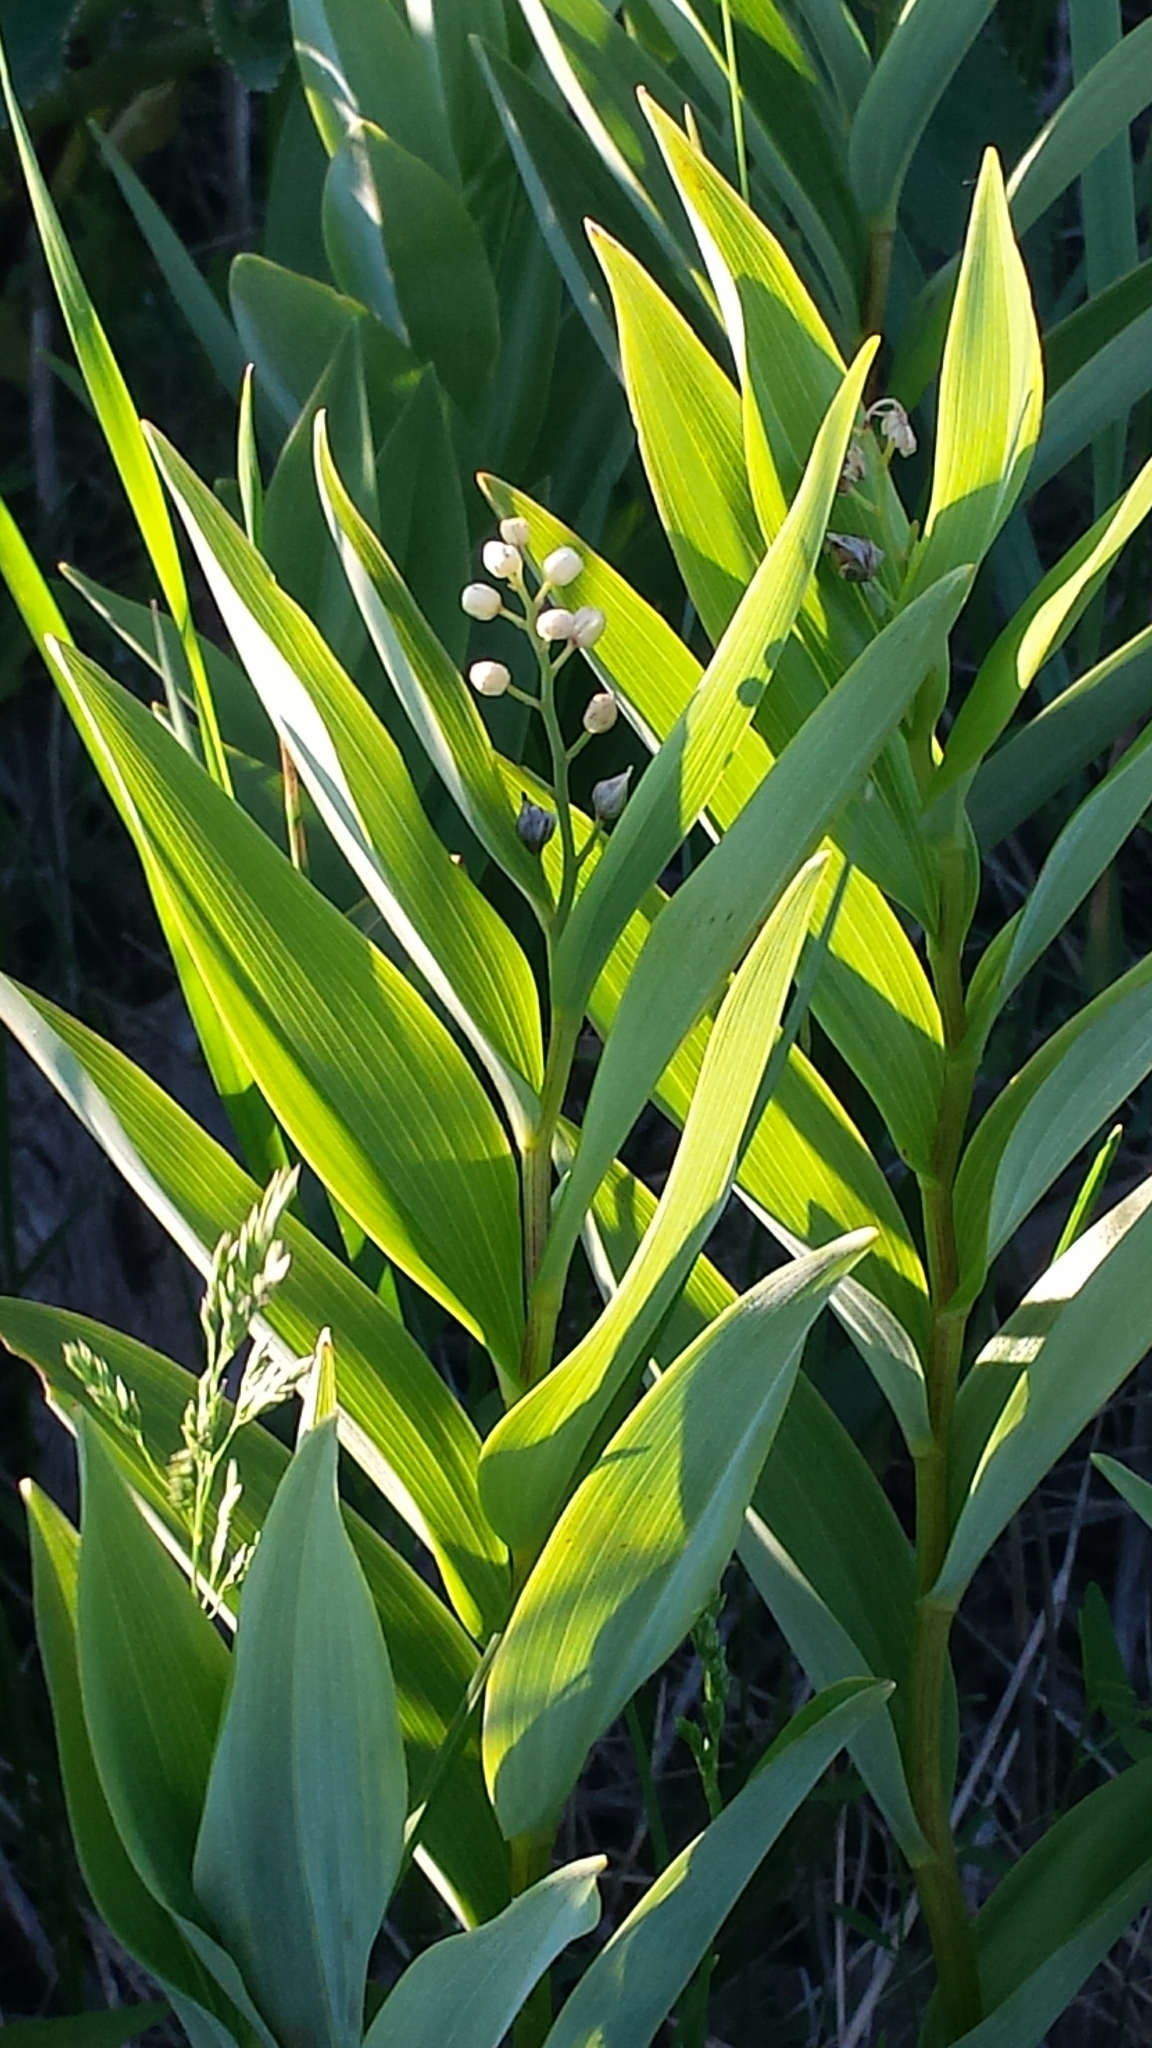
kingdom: Plantae
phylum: Tracheophyta
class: Liliopsida
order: Asparagales
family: Asparagaceae
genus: Maianthemum
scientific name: Maianthemum stellatum
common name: Little false solomon's seal
